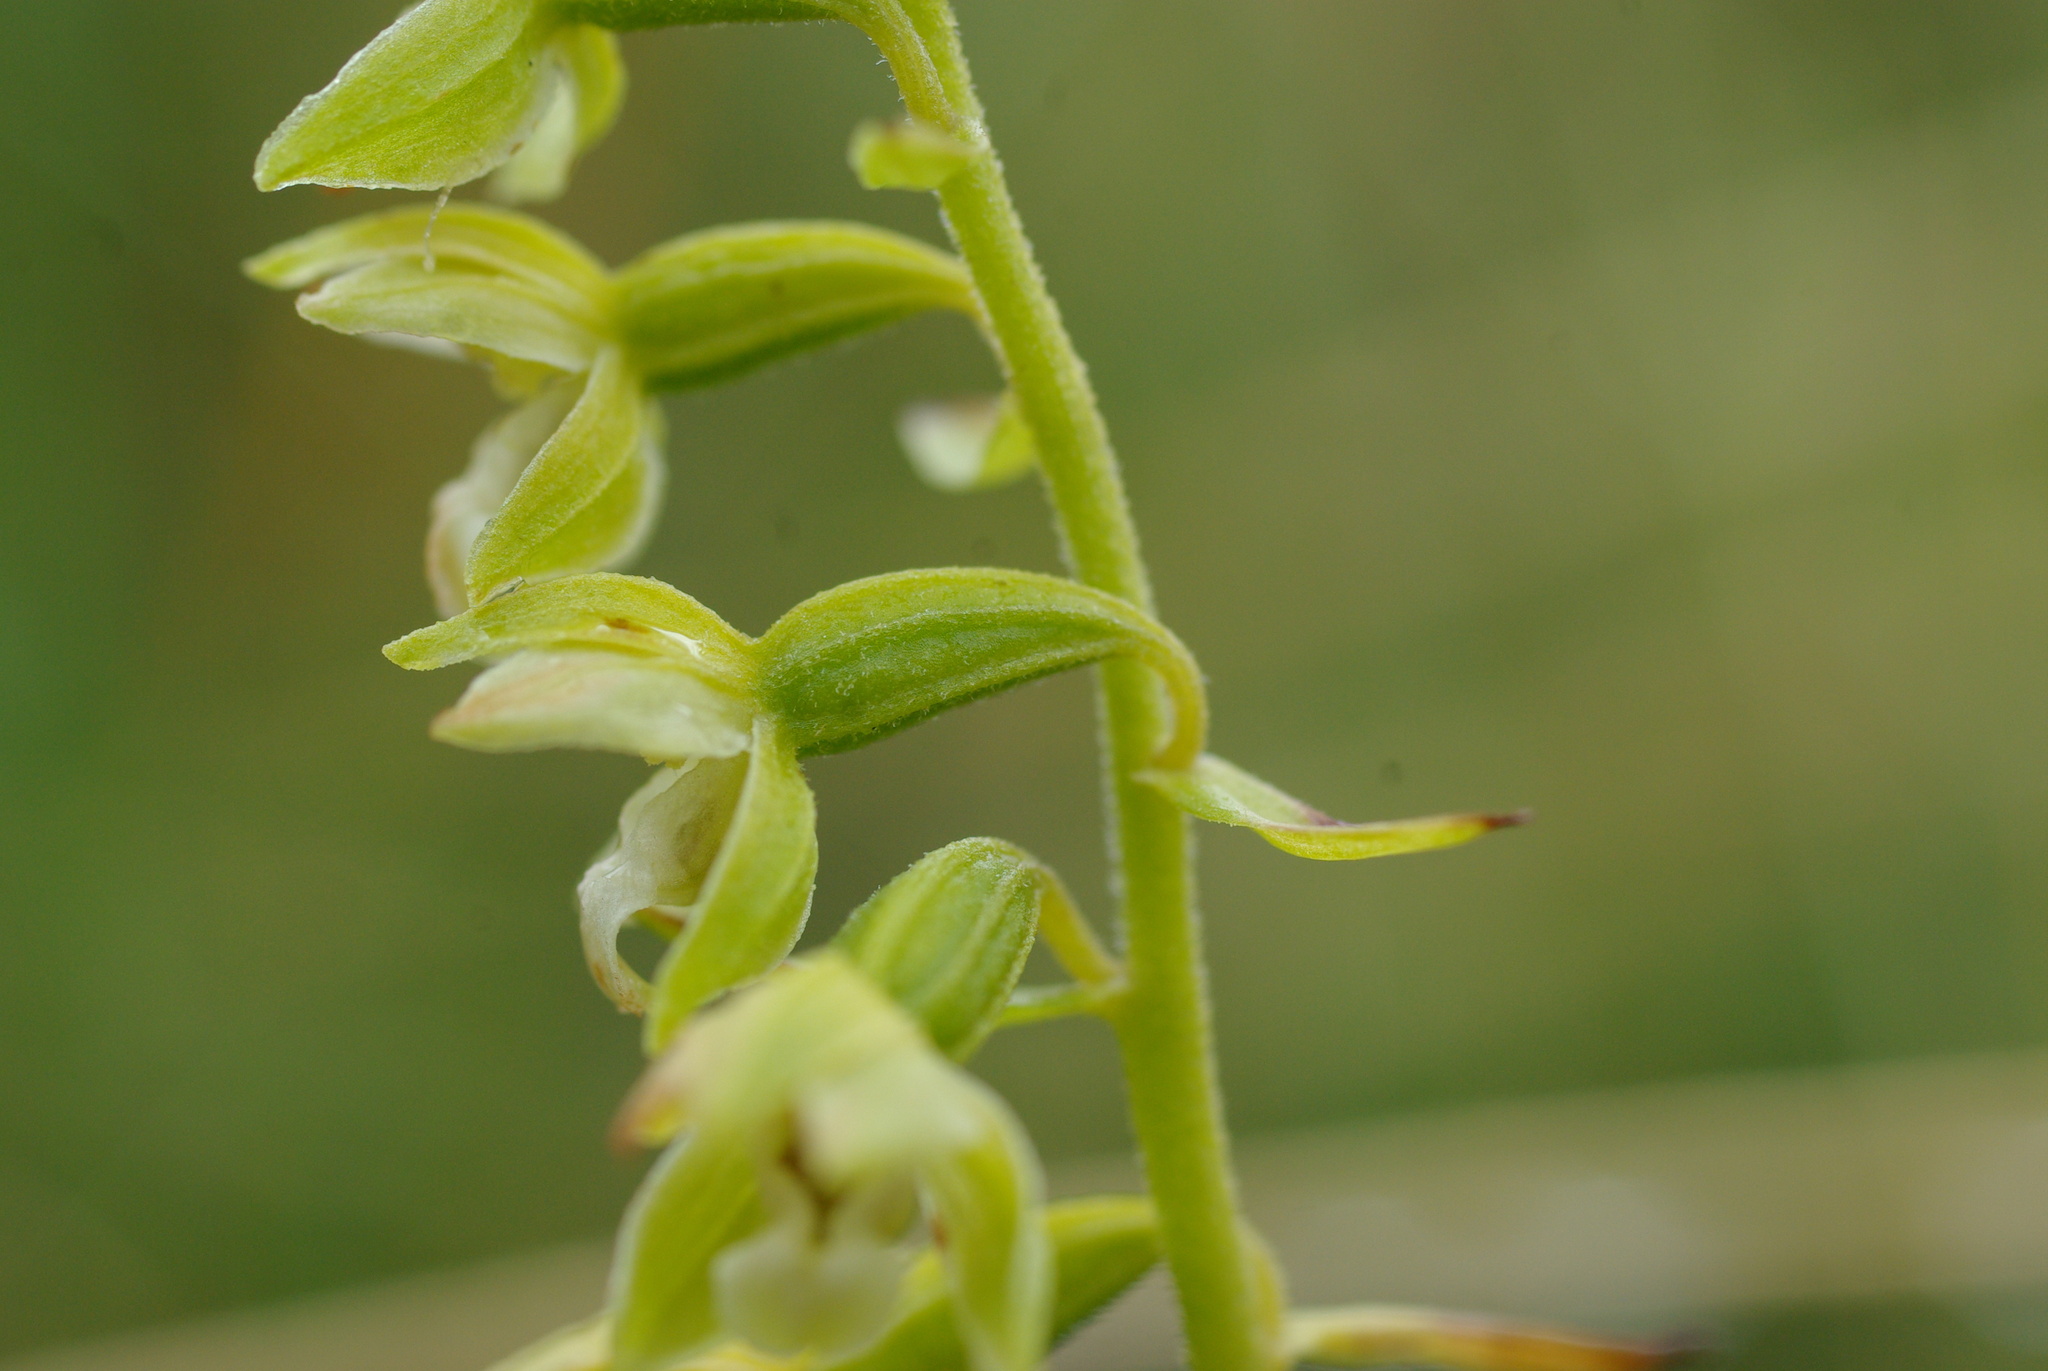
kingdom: Plantae
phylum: Tracheophyta
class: Liliopsida
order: Asparagales
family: Orchidaceae
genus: Epipactis
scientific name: Epipactis dunensis
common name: Dune helleborine
